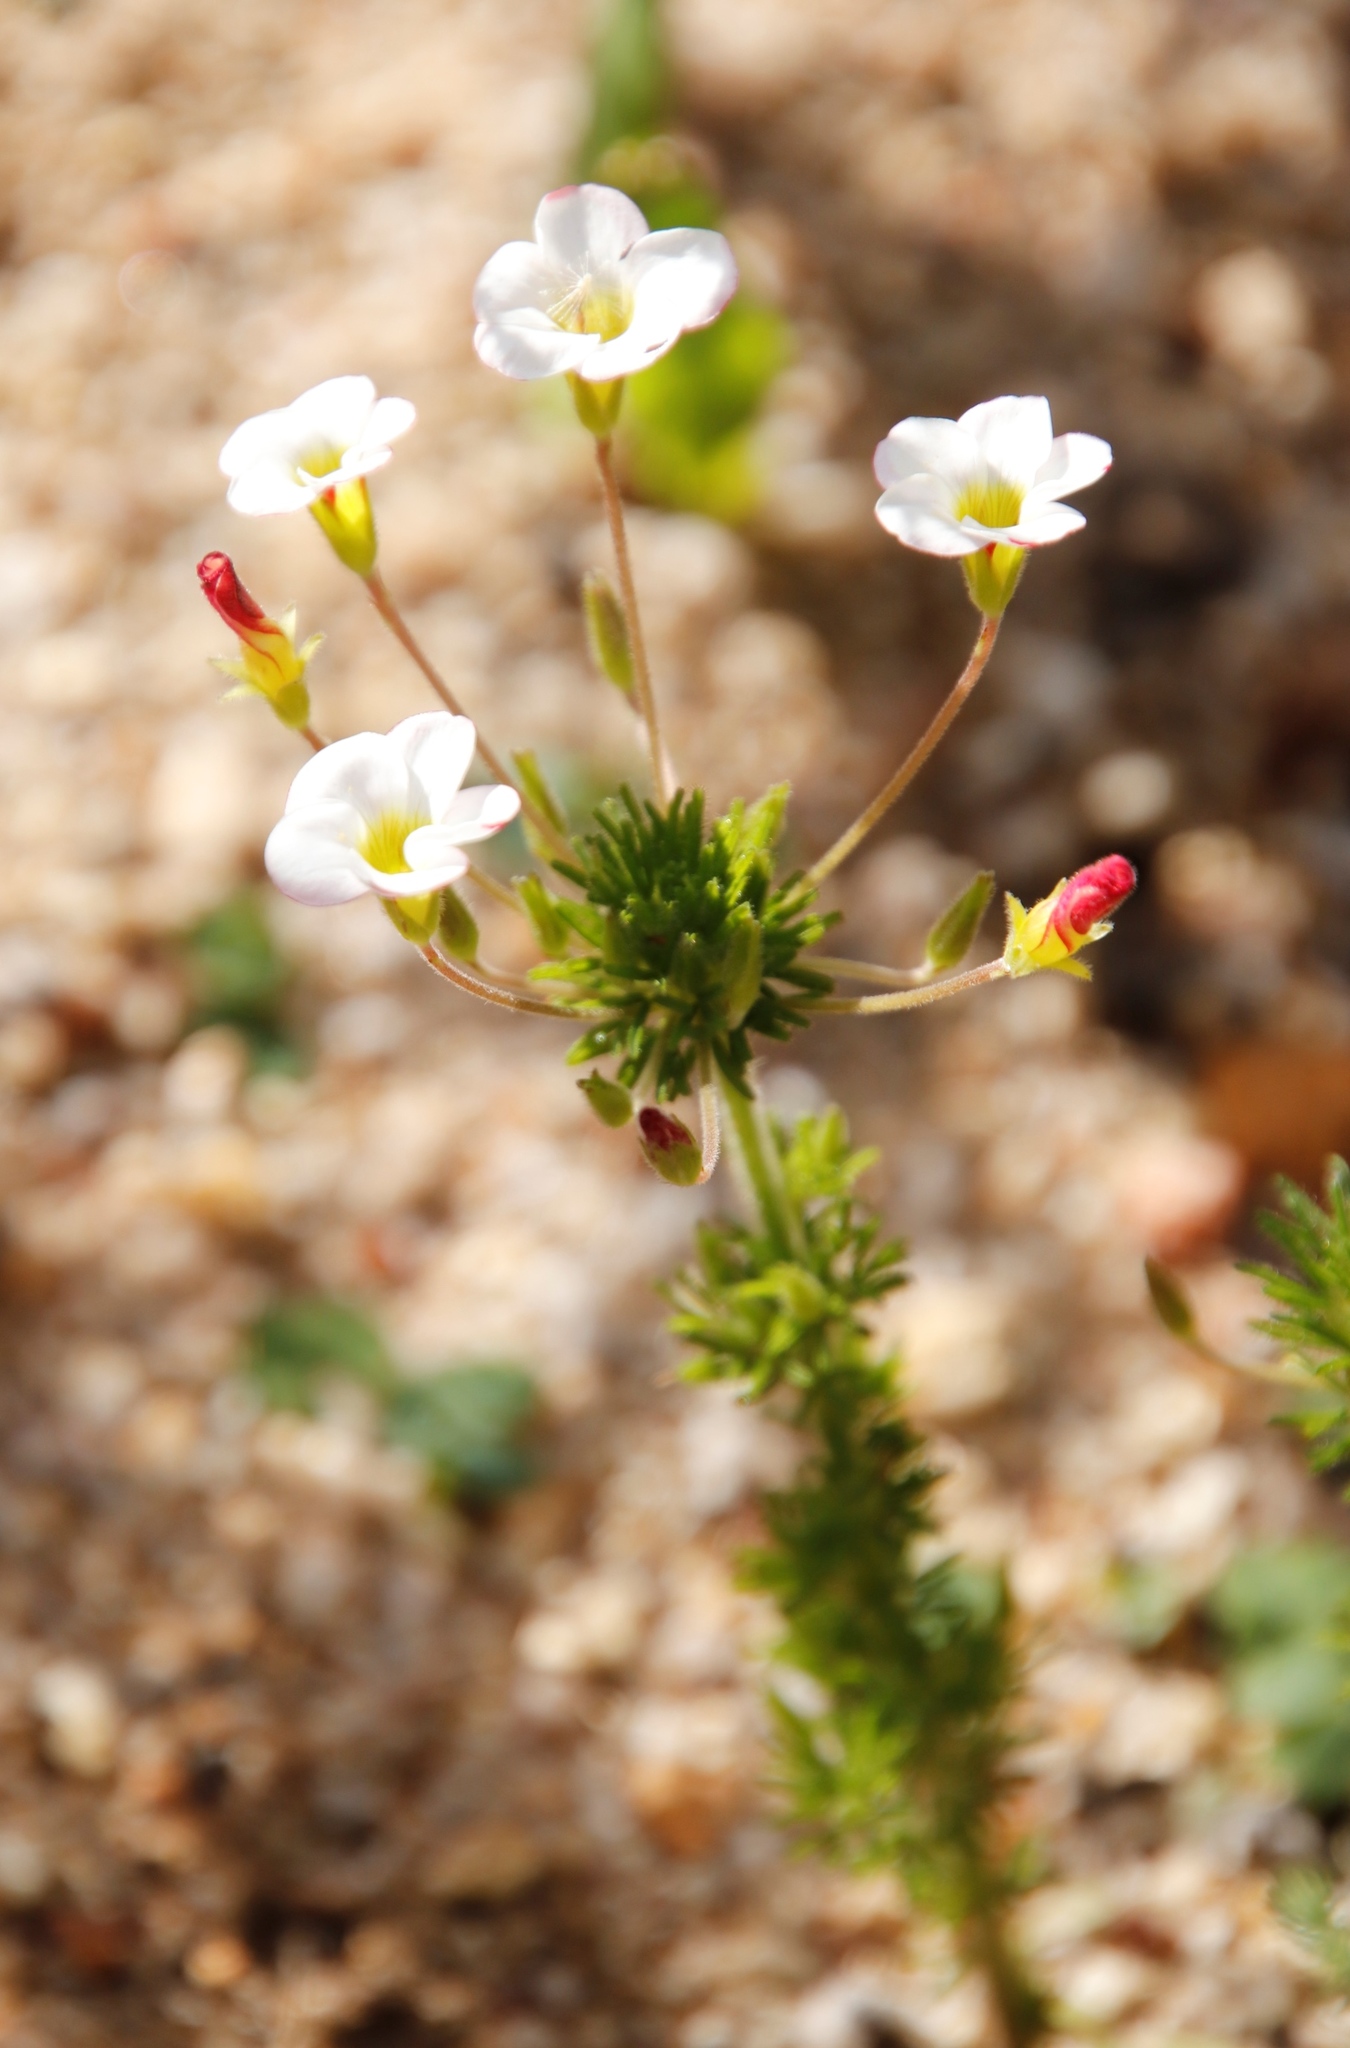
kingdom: Plantae
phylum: Tracheophyta
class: Magnoliopsida
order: Oxalidales
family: Oxalidaceae
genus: Oxalis
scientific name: Oxalis tenuifolia
